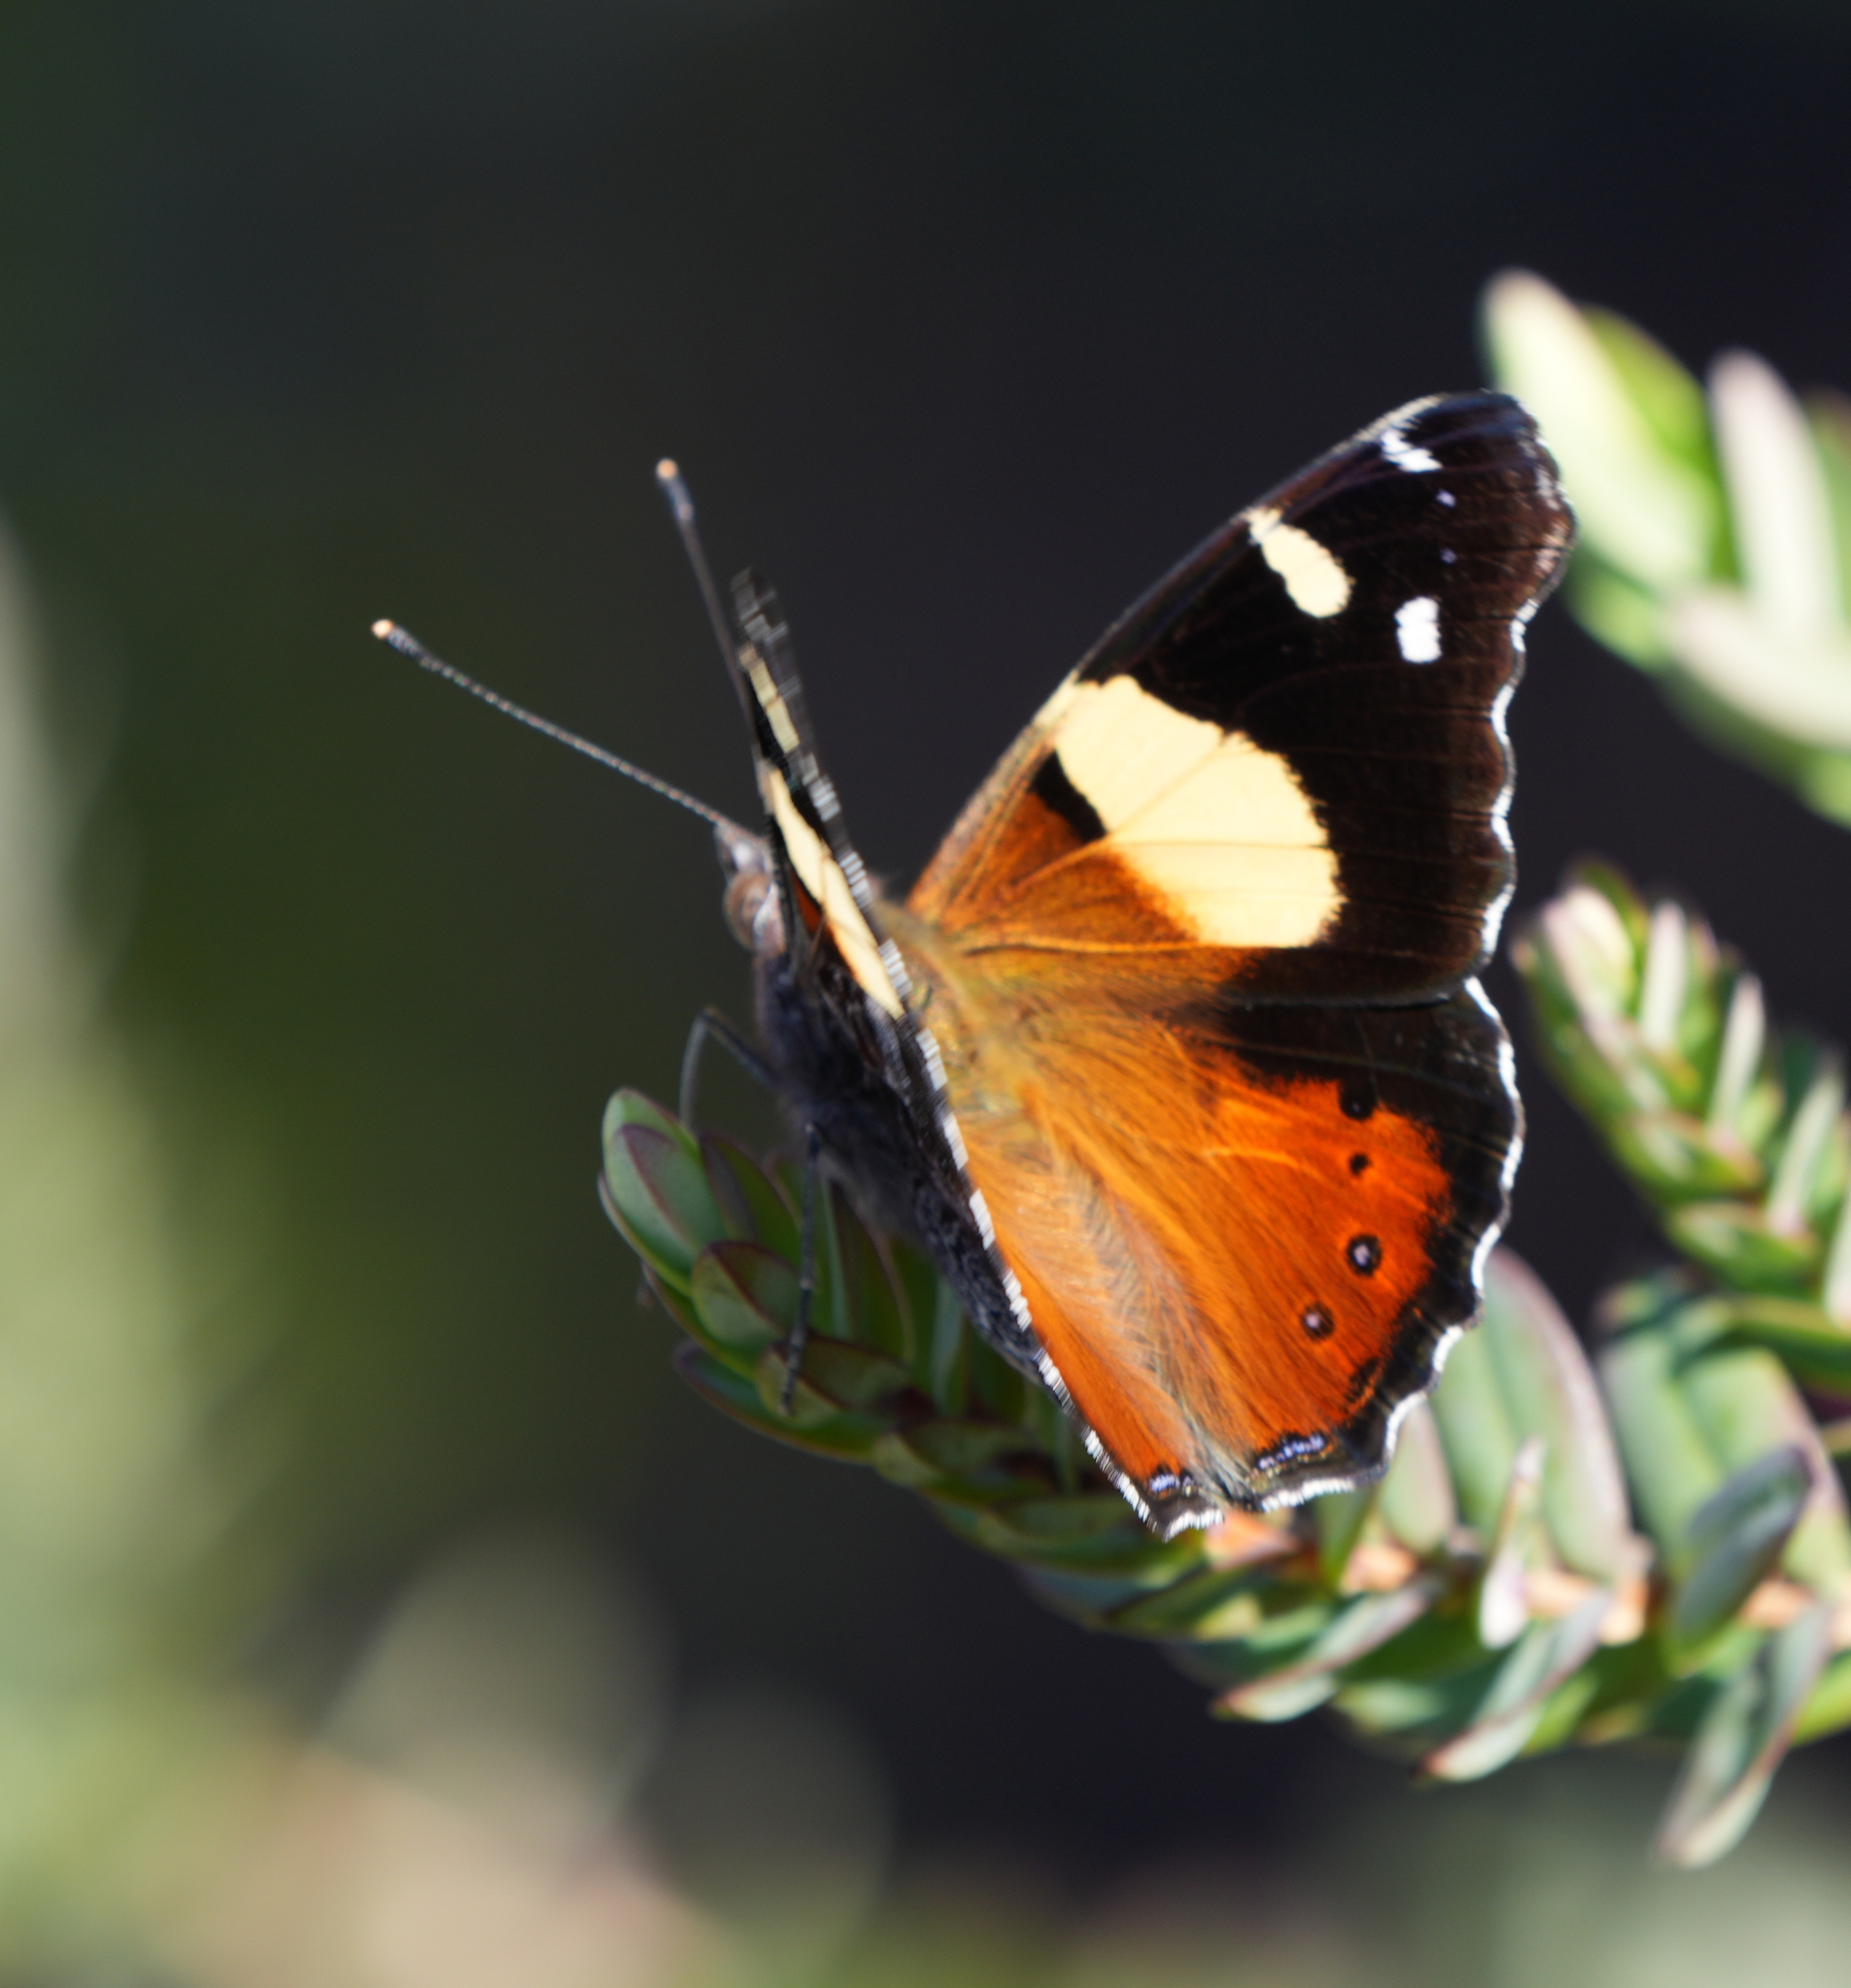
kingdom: Animalia
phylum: Arthropoda
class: Insecta
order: Lepidoptera
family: Nymphalidae
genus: Vanessa
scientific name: Vanessa itea
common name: Yellow admiral
